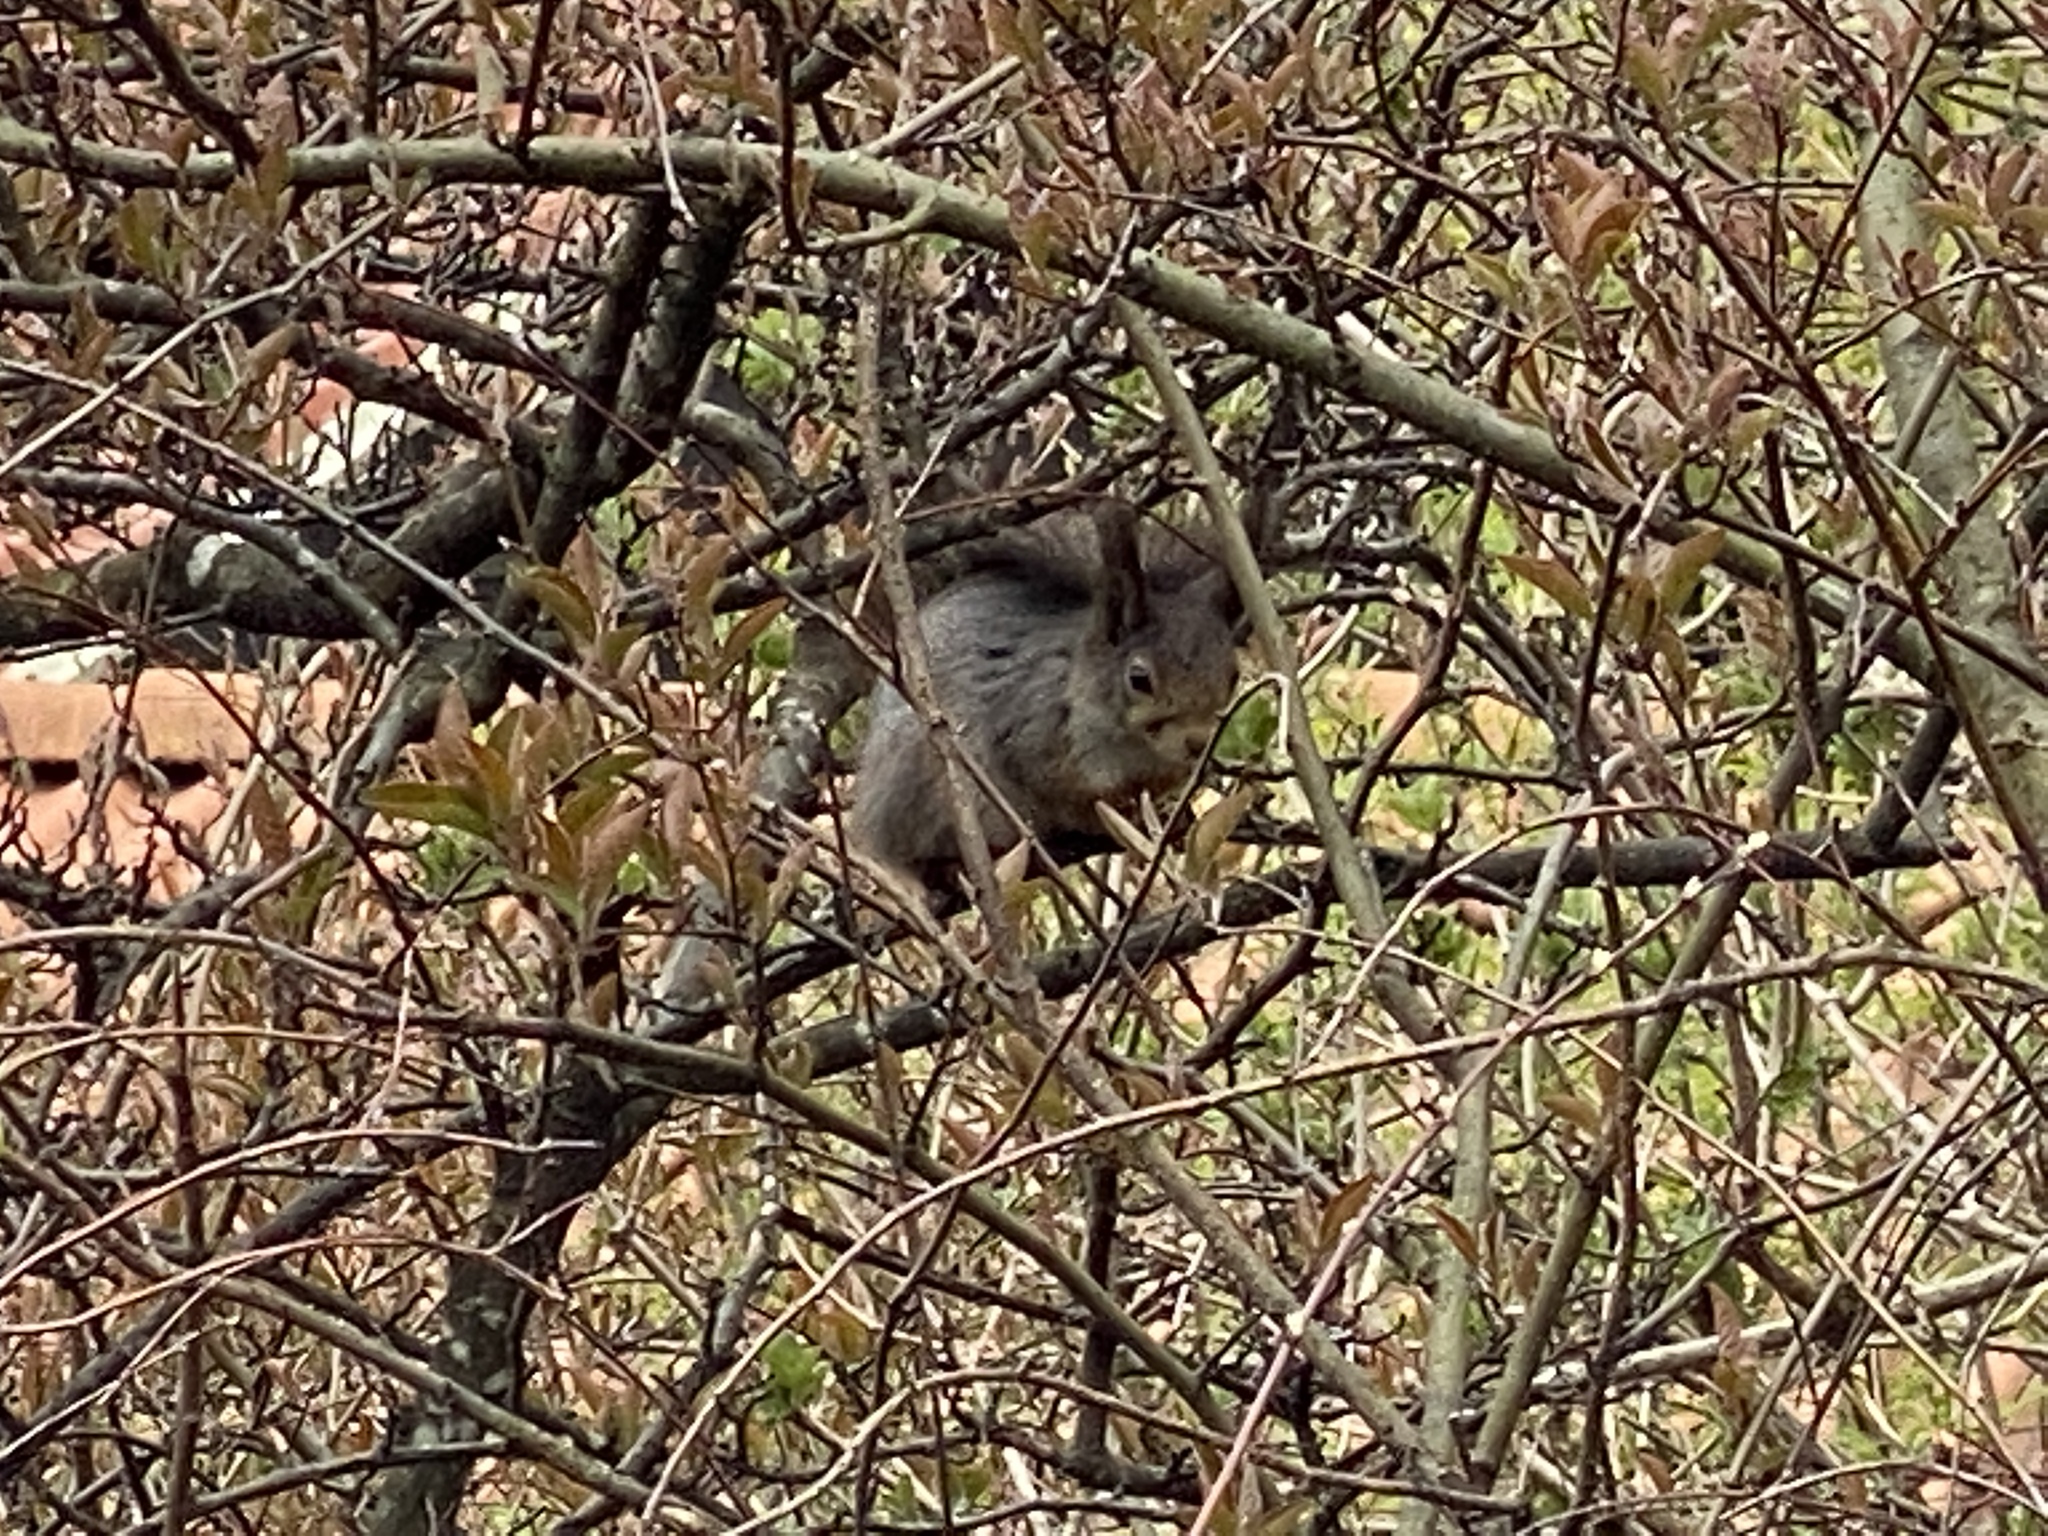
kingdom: Animalia
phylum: Chordata
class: Mammalia
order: Rodentia
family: Sciuridae
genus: Sciurus
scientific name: Sciurus vulgaris
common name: Eurasian red squirrel
